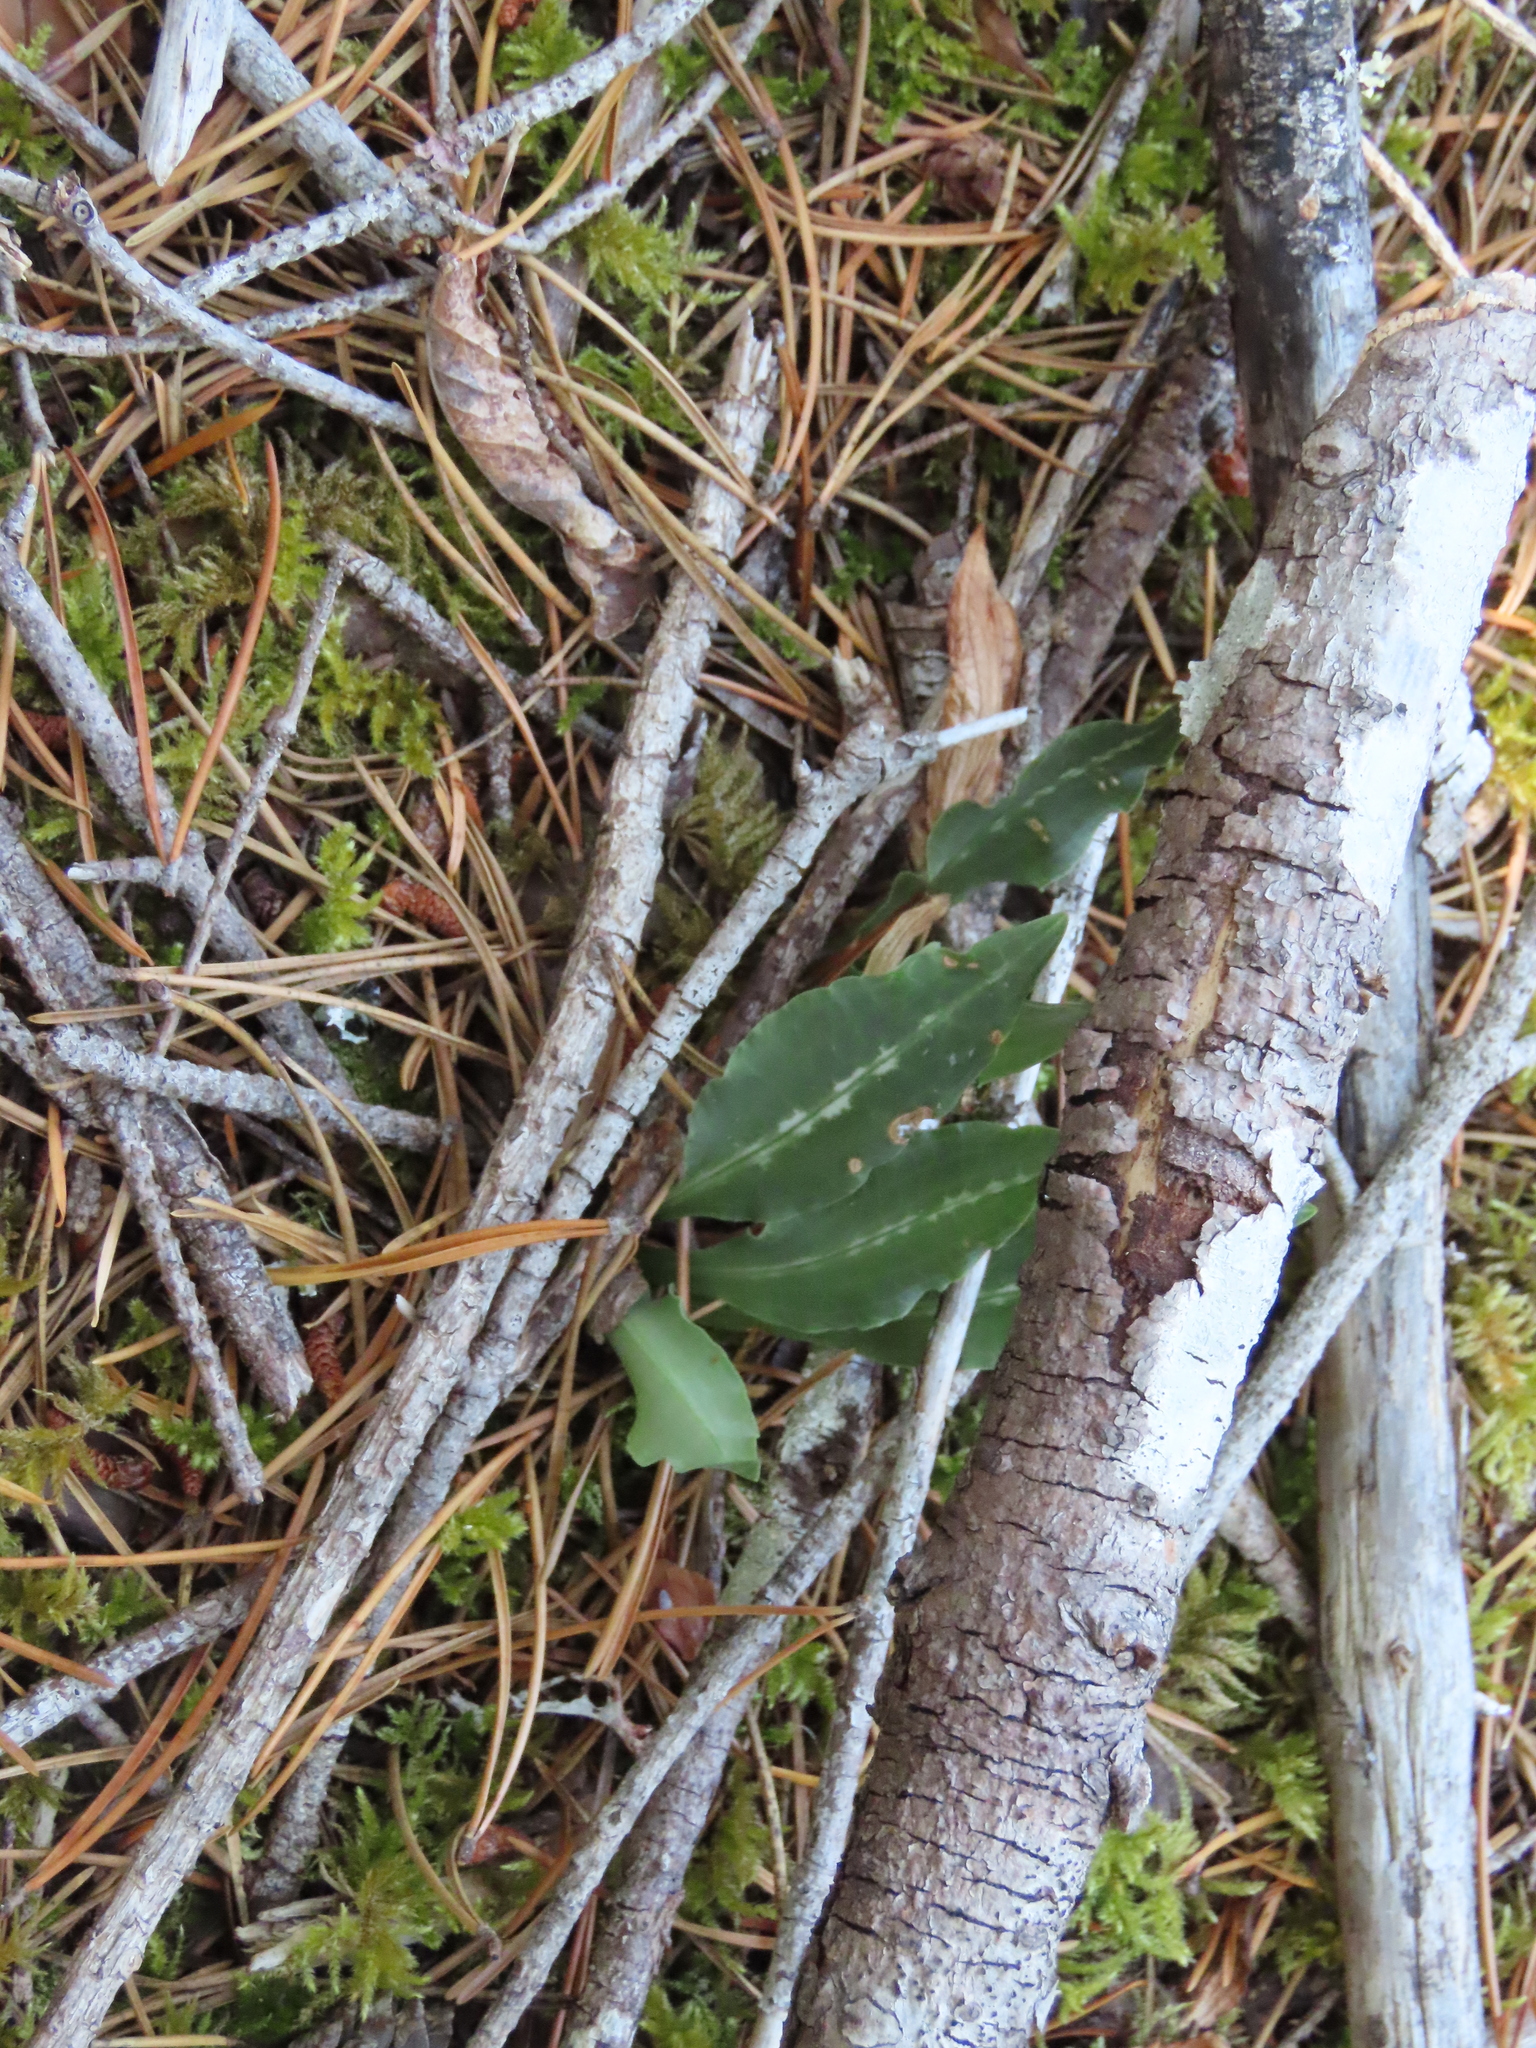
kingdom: Plantae
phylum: Tracheophyta
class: Liliopsida
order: Asparagales
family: Orchidaceae
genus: Goodyera
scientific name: Goodyera oblongifolia
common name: Giant rattlesnake-plantain
